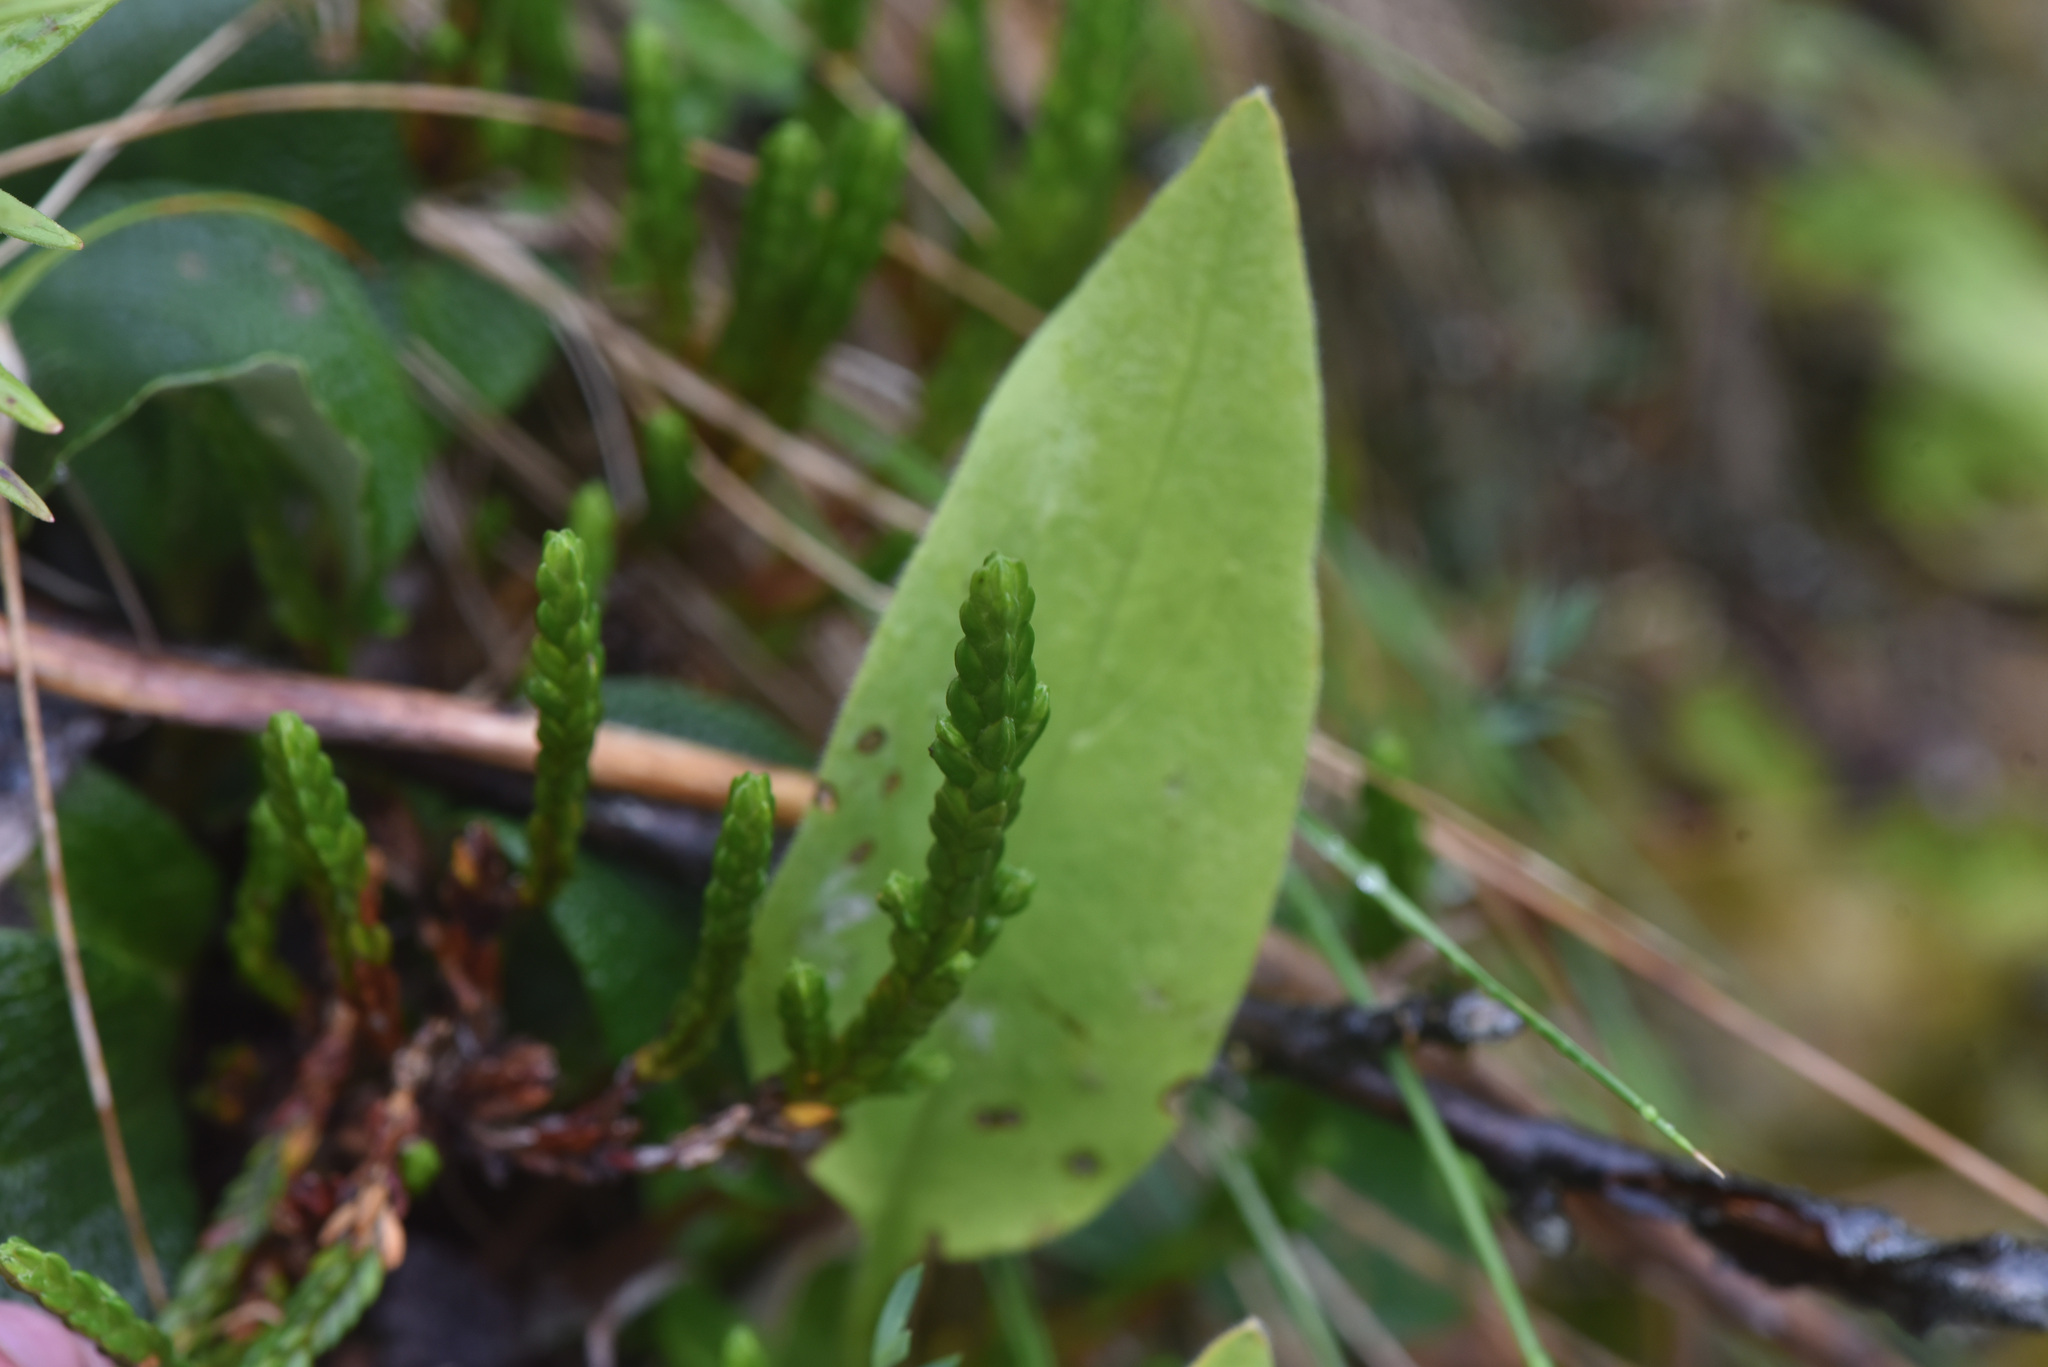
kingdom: Plantae
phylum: Tracheophyta
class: Magnoliopsida
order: Ericales
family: Ericaceae
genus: Cassiope
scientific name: Cassiope tetragona
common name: Arctic bell heather
